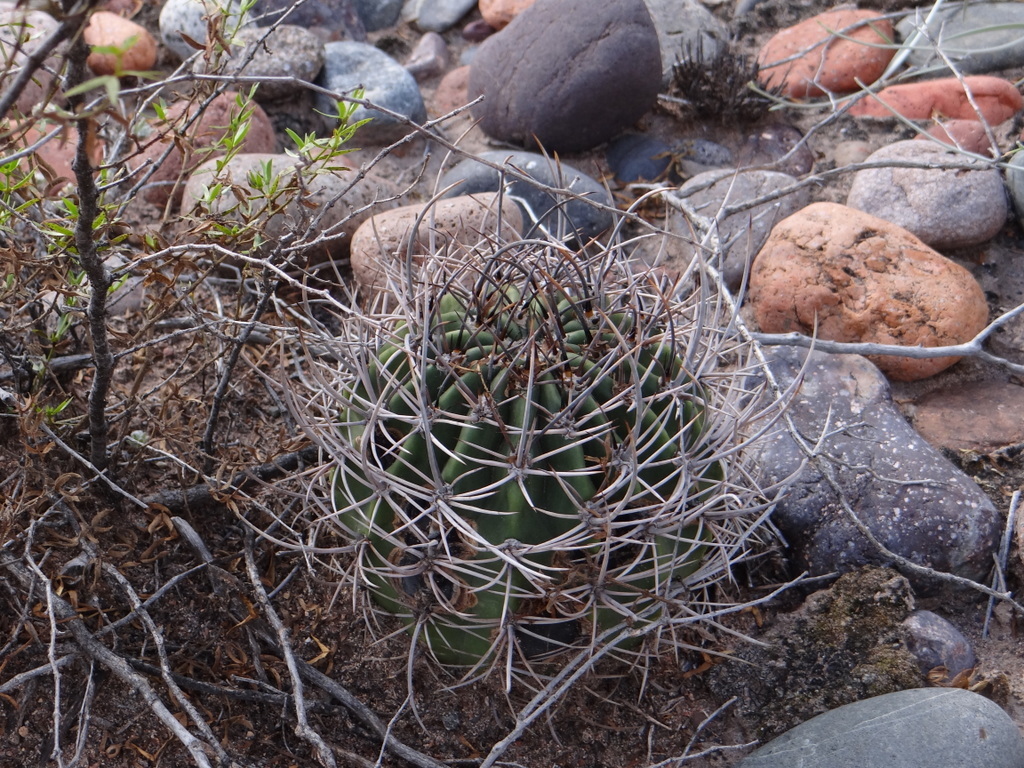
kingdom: Plantae
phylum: Tracheophyta
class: Magnoliopsida
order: Caryophyllales
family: Cactaceae
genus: Acanthocalycium
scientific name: Acanthocalycium leucanthum
